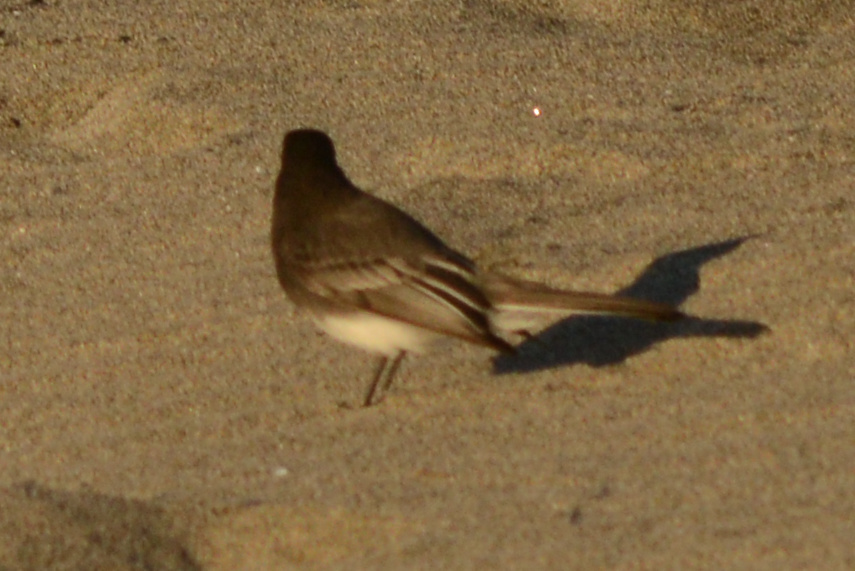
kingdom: Animalia
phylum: Chordata
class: Aves
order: Passeriformes
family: Tyrannidae
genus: Sayornis
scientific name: Sayornis nigricans
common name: Black phoebe
